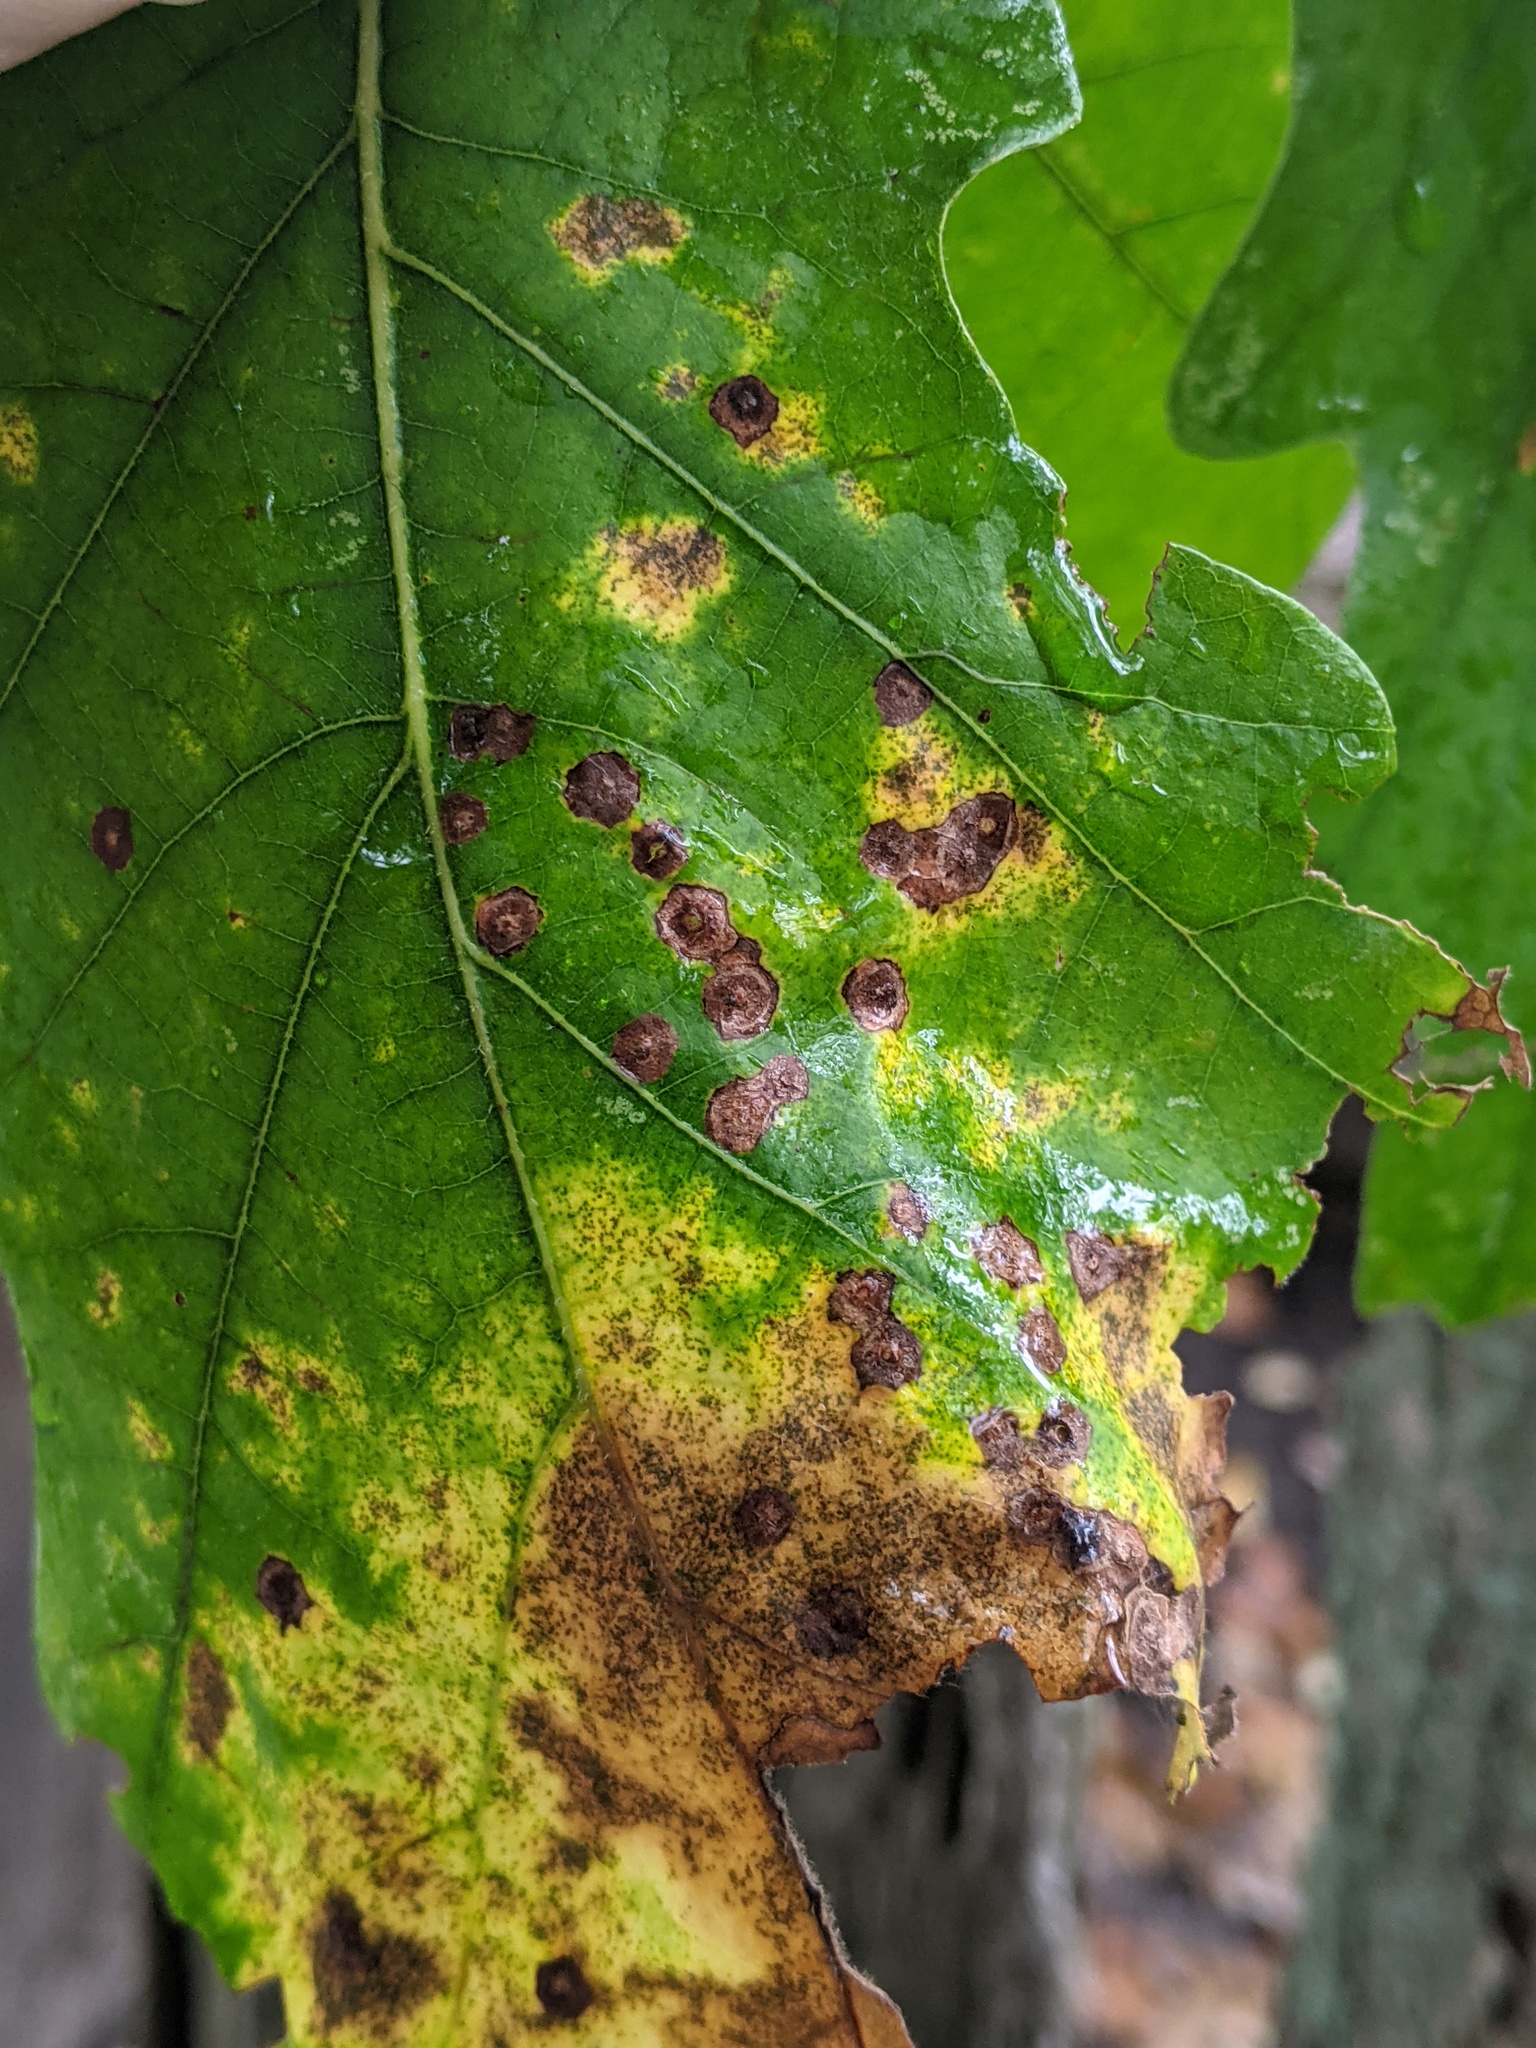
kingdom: Animalia
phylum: Arthropoda
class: Insecta
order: Hymenoptera
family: Cynipidae
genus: Neuroterus
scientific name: Neuroterus saltarius
